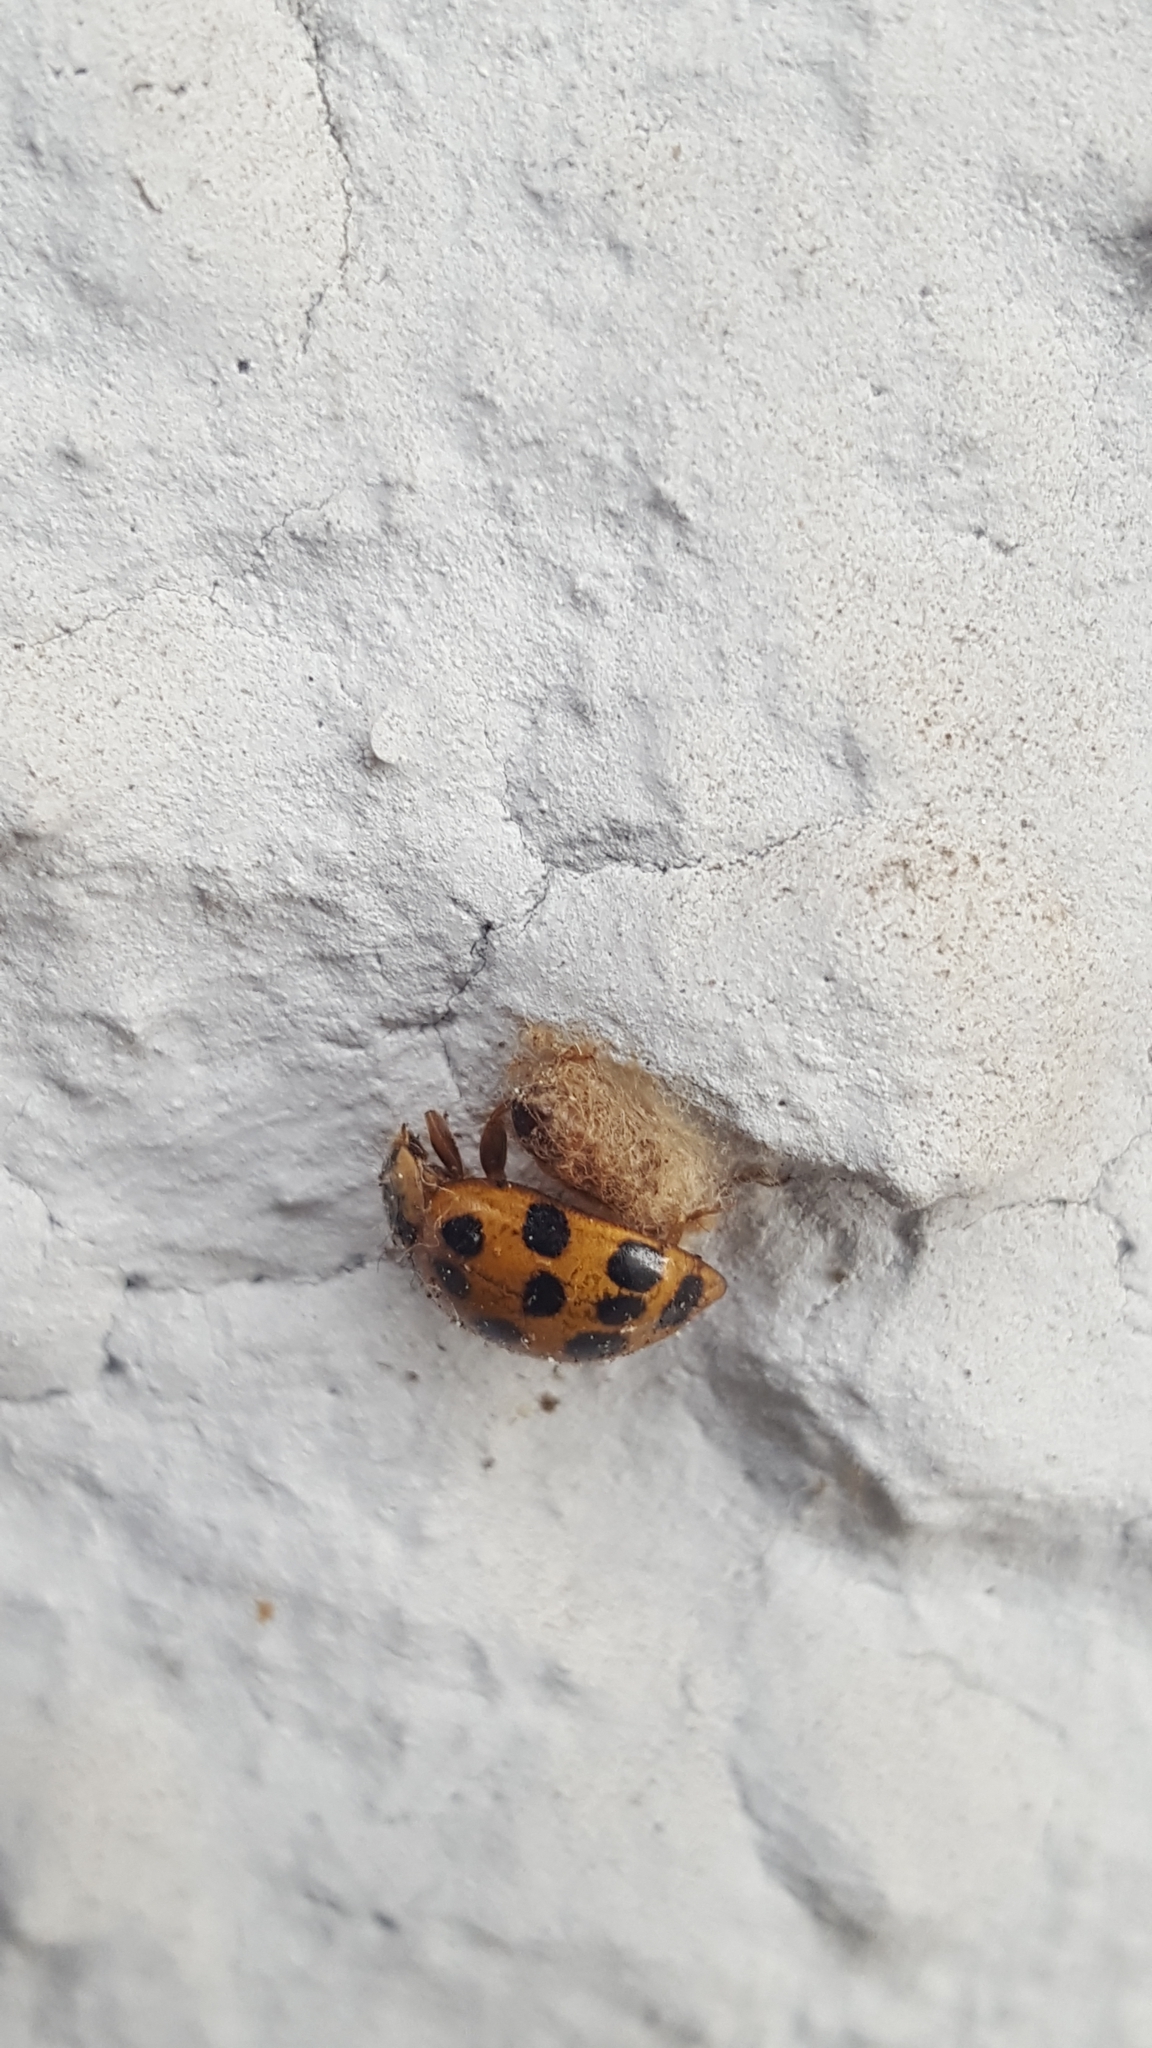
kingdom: Animalia
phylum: Arthropoda
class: Insecta
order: Hymenoptera
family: Braconidae
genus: Dinocampus
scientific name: Dinocampus coccinellae
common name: Braconid wasp
